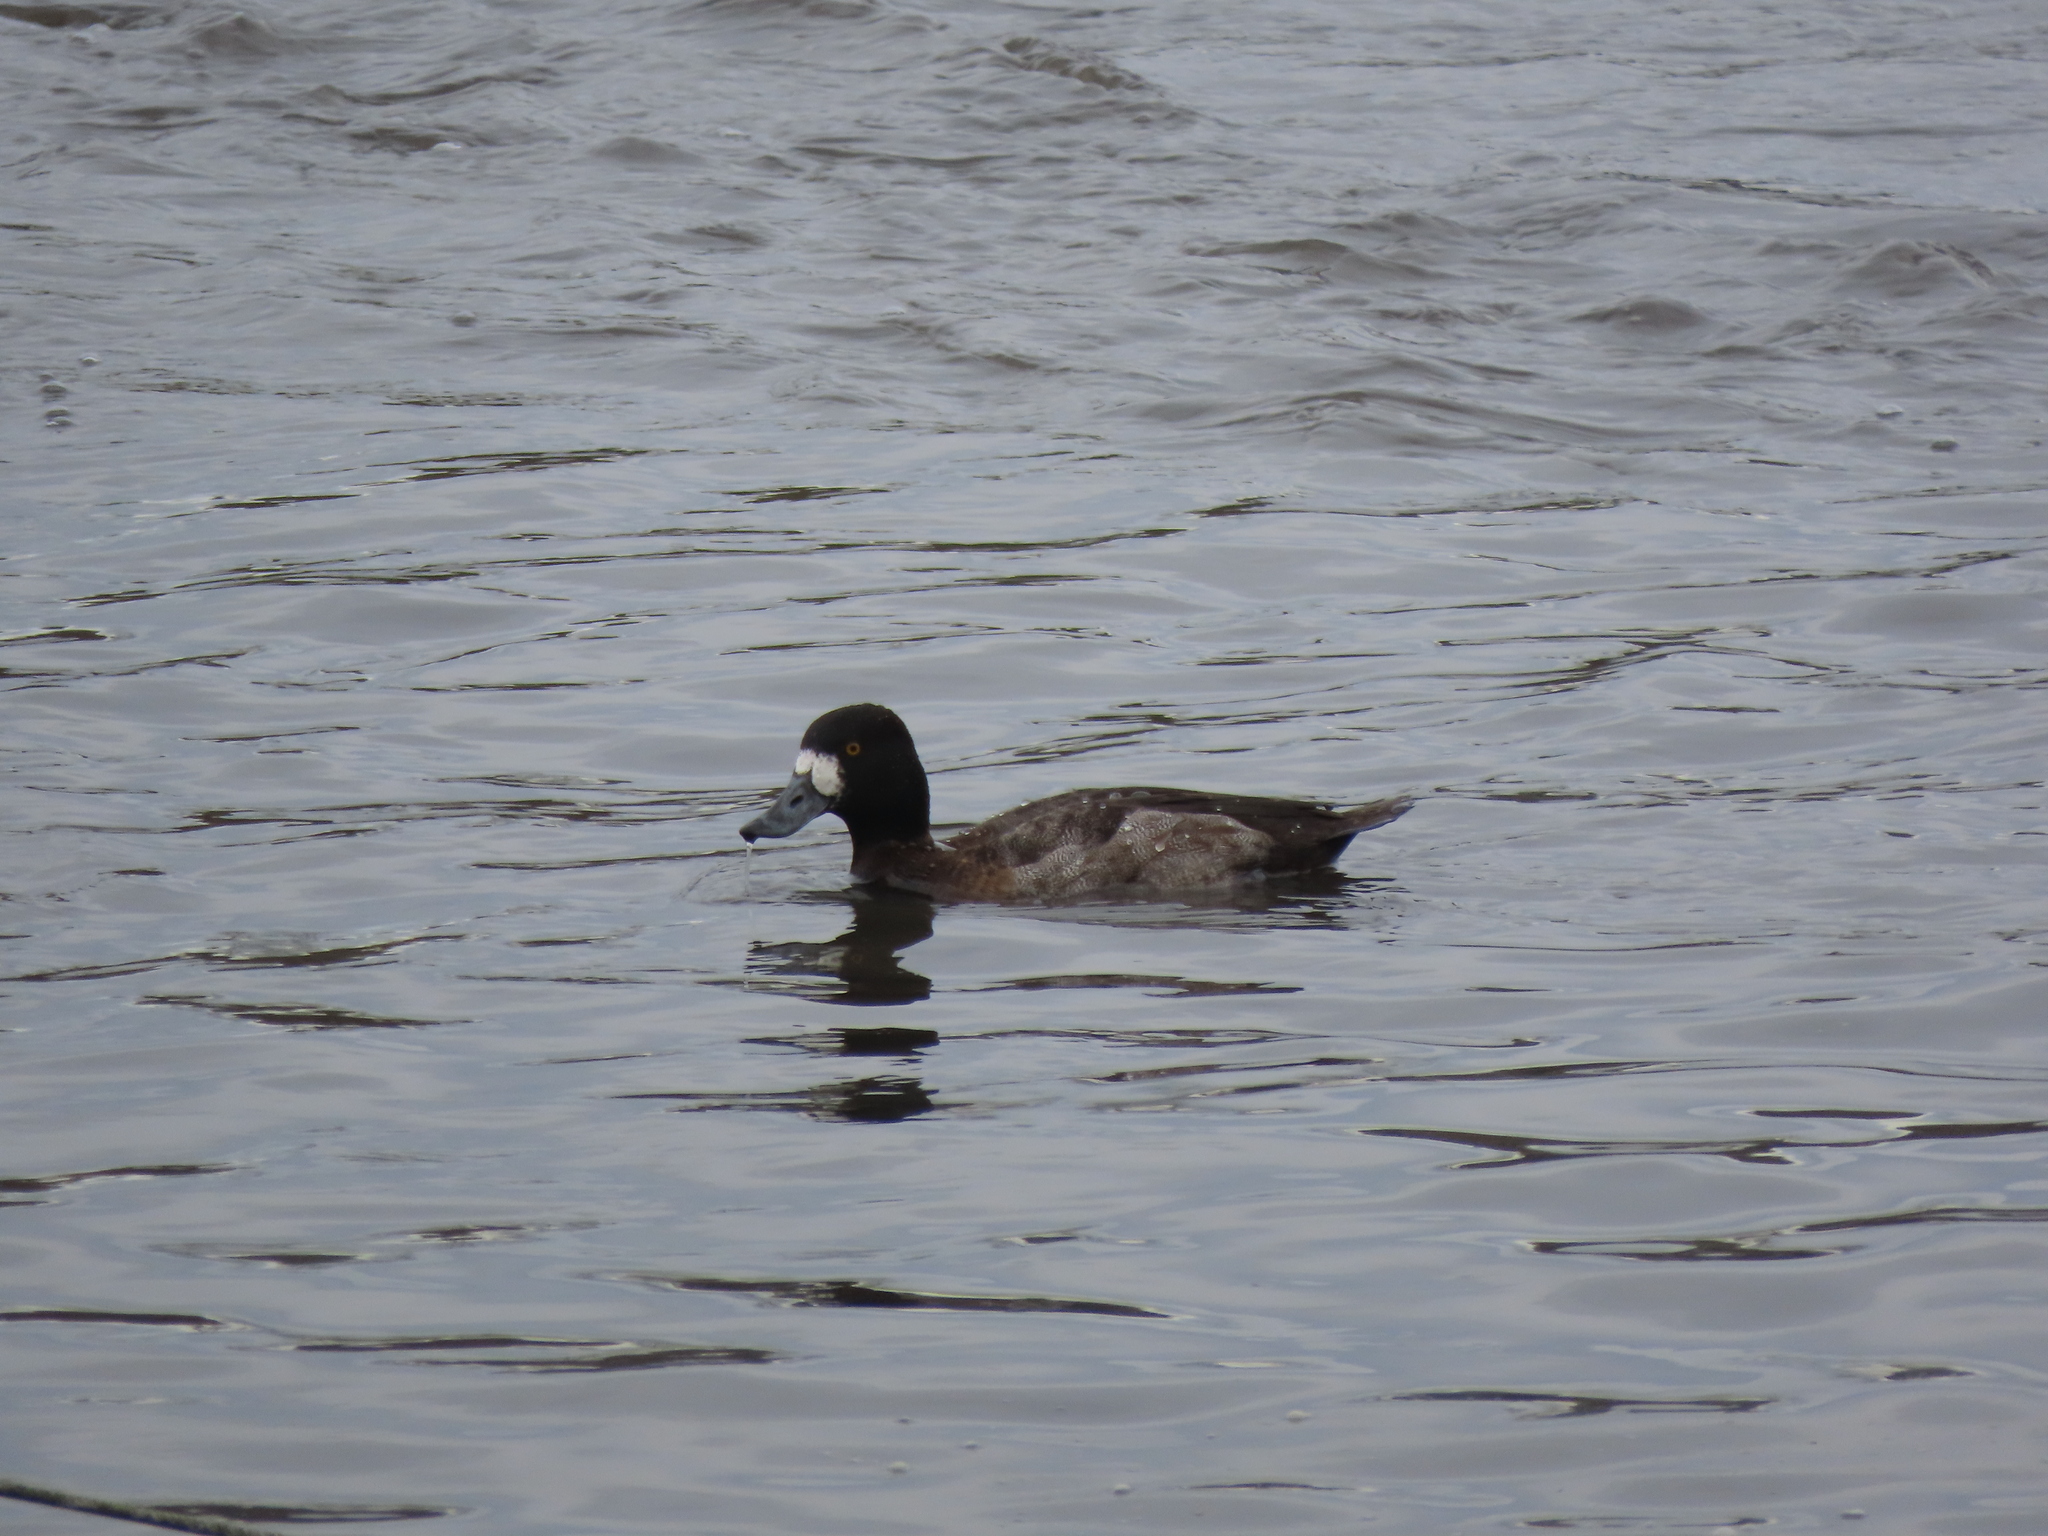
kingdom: Animalia
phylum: Chordata
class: Aves
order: Anseriformes
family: Anatidae
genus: Aythya
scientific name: Aythya affinis
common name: Lesser scaup
